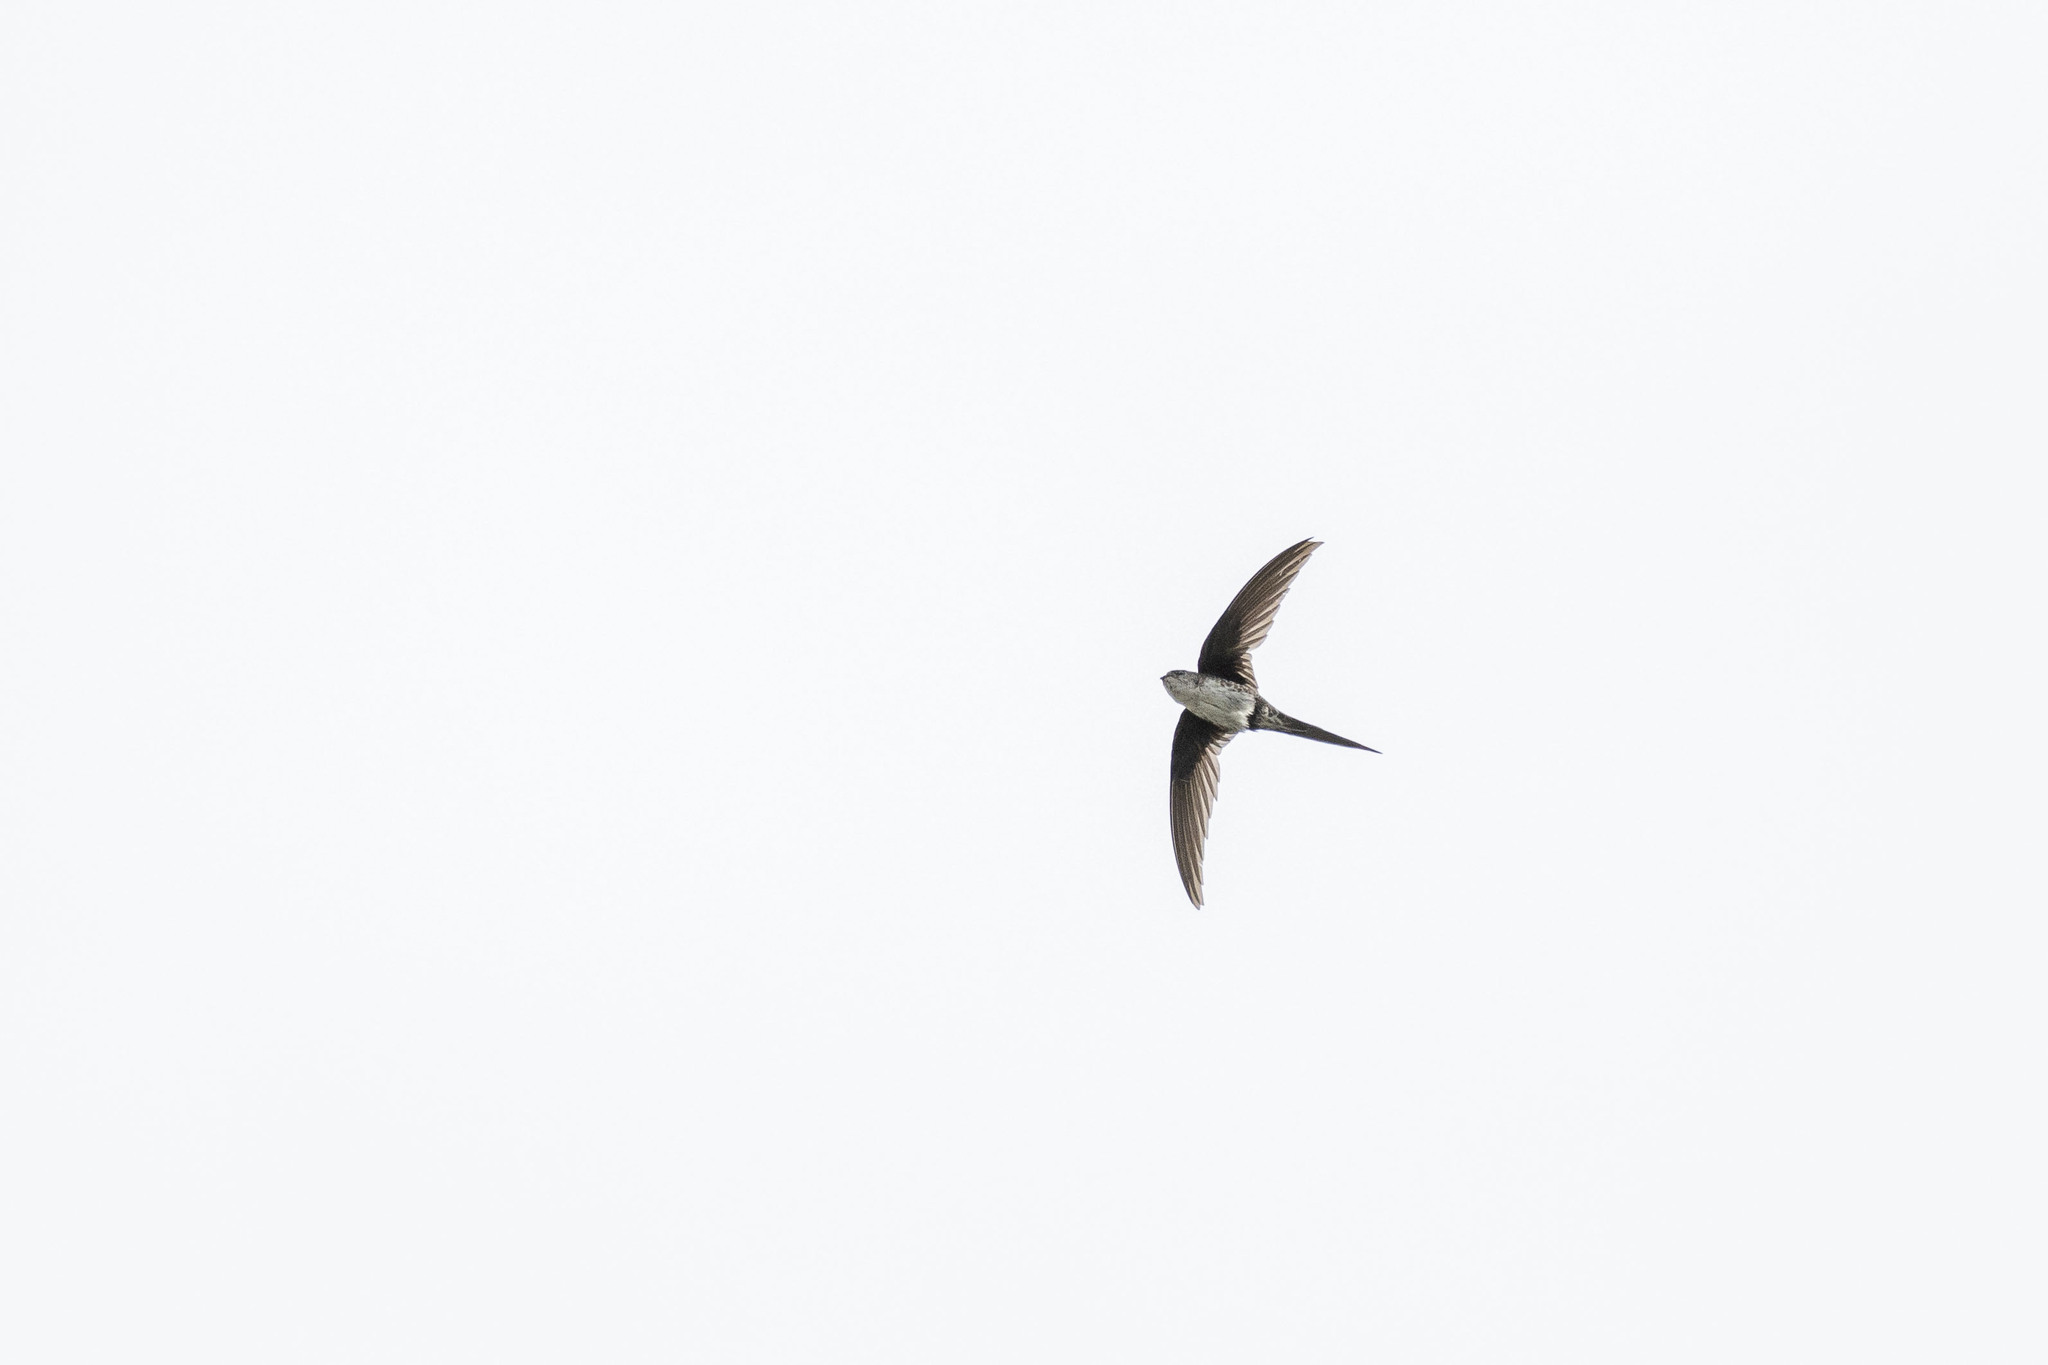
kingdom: Animalia
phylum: Chordata
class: Aves
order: Apodiformes
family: Apodidae
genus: Tachornis
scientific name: Tachornis squamata
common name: Neotropical palm swift
